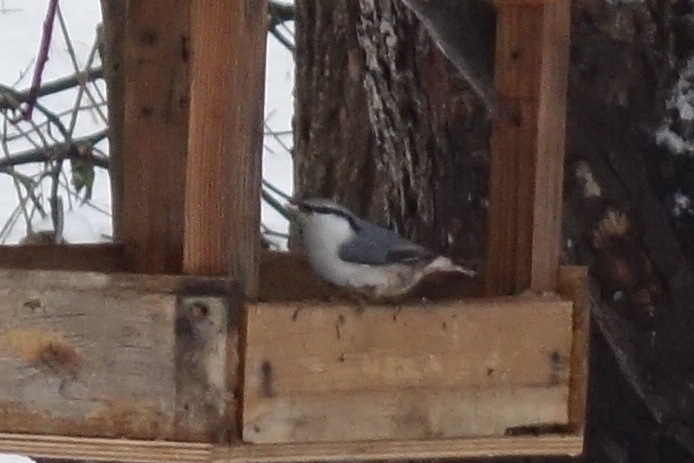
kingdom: Animalia
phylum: Chordata
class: Aves
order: Passeriformes
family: Sittidae
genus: Sitta
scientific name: Sitta europaea
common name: Eurasian nuthatch
